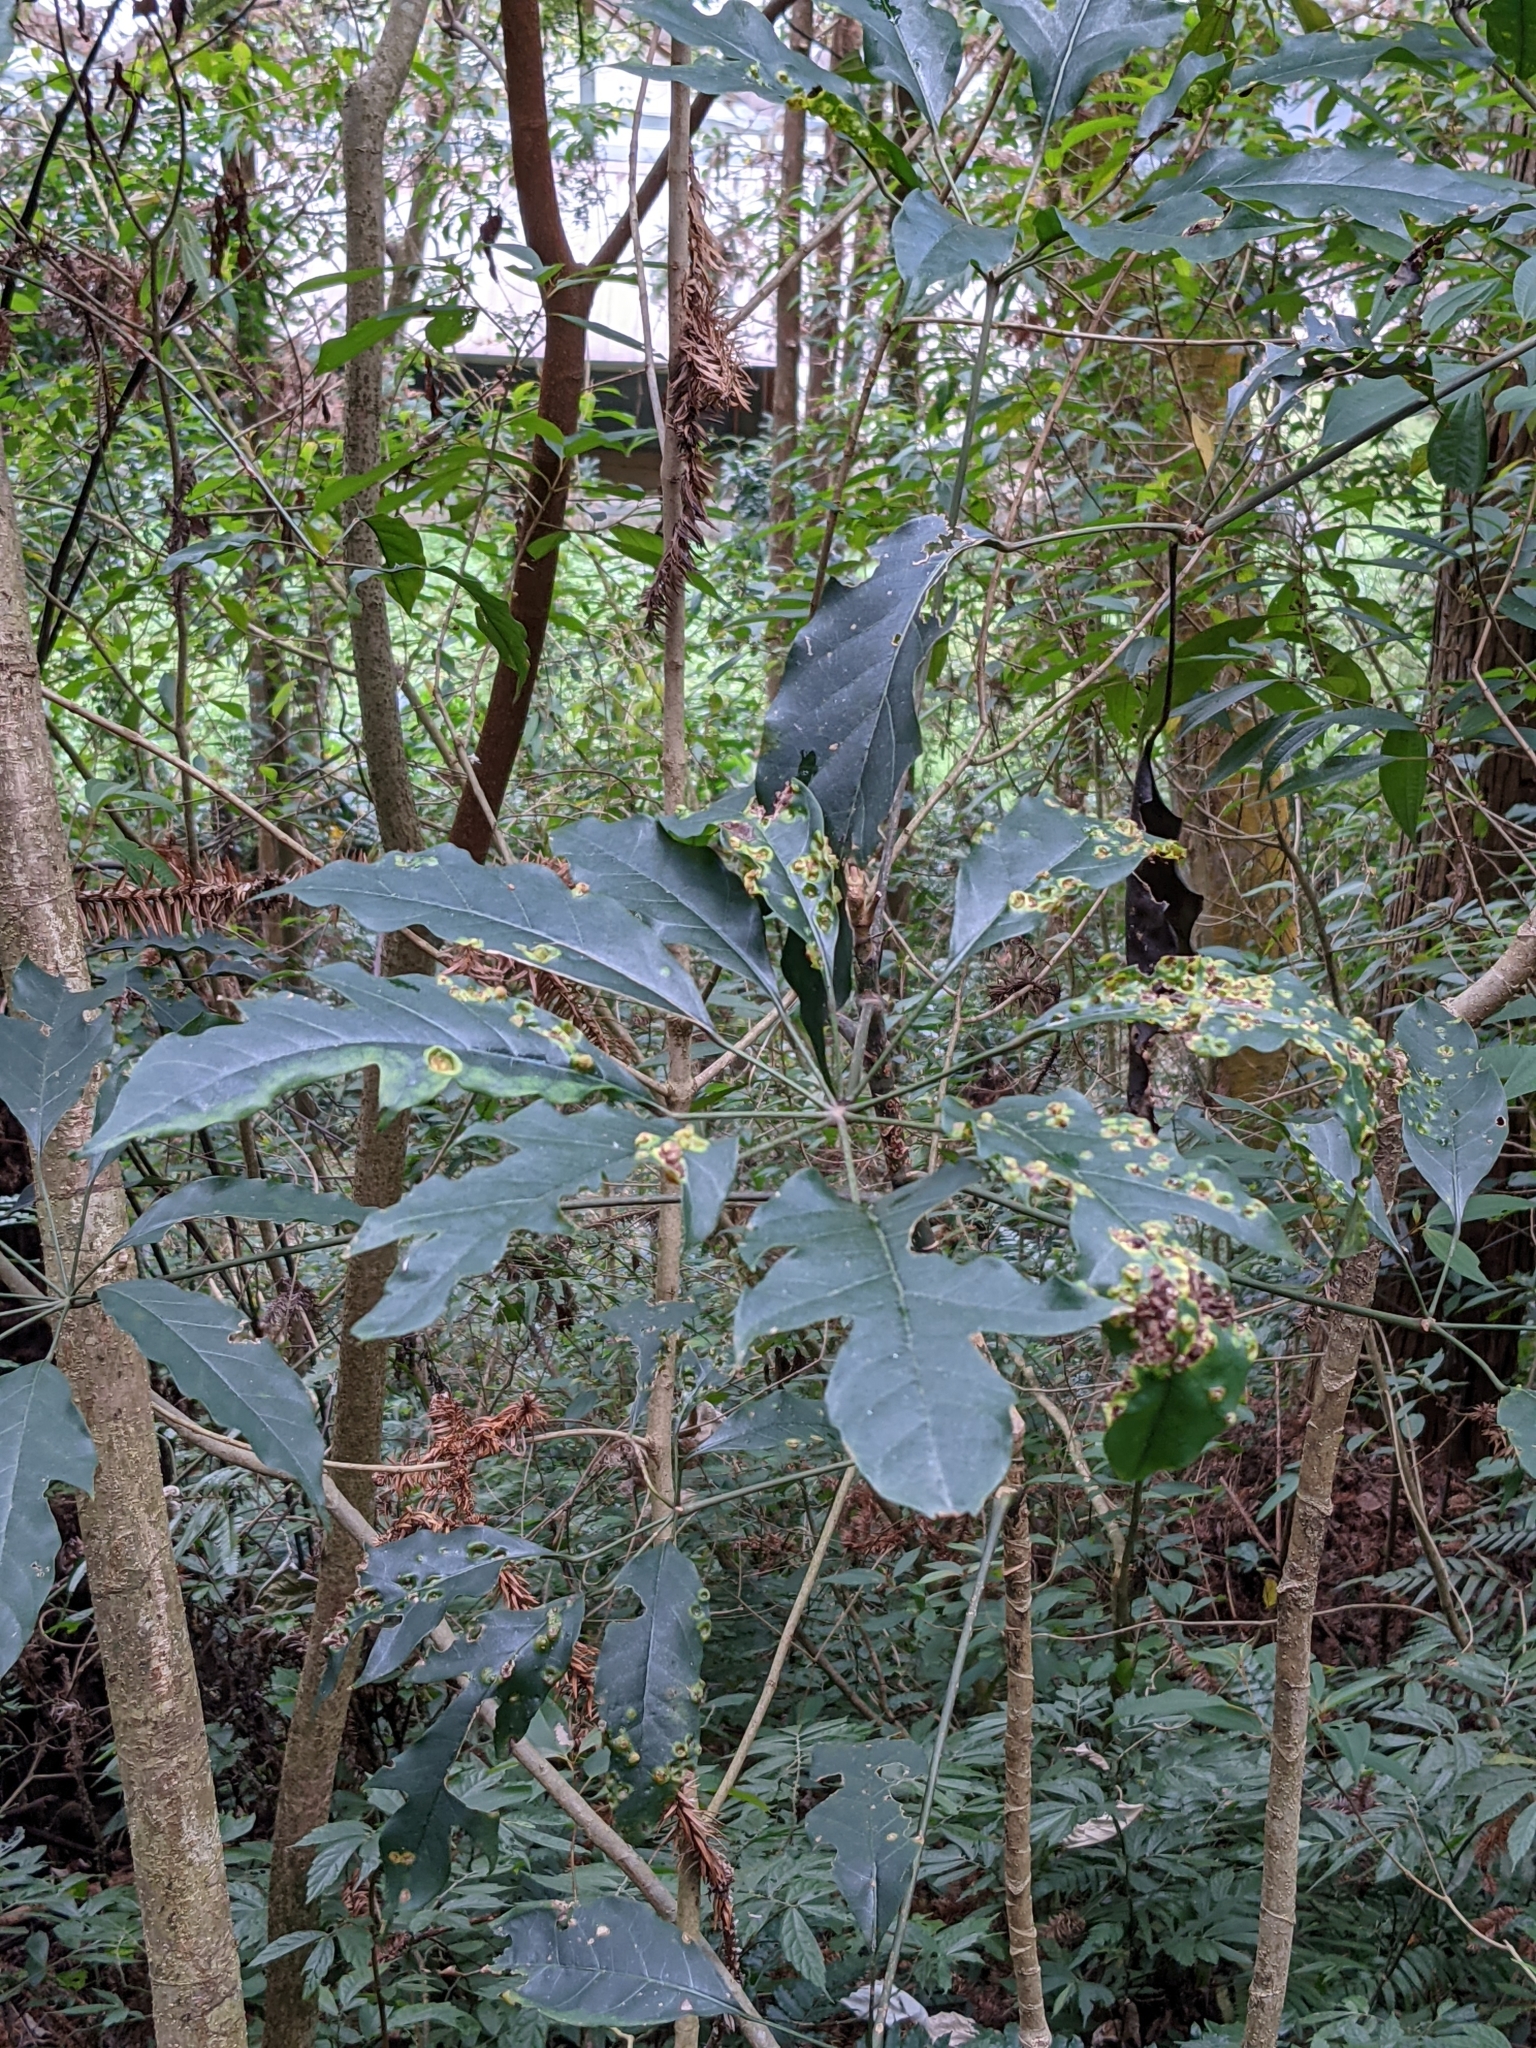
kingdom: Plantae
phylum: Tracheophyta
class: Magnoliopsida
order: Apiales
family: Araliaceae
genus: Heptapleurum
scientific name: Heptapleurum heptaphyllum
